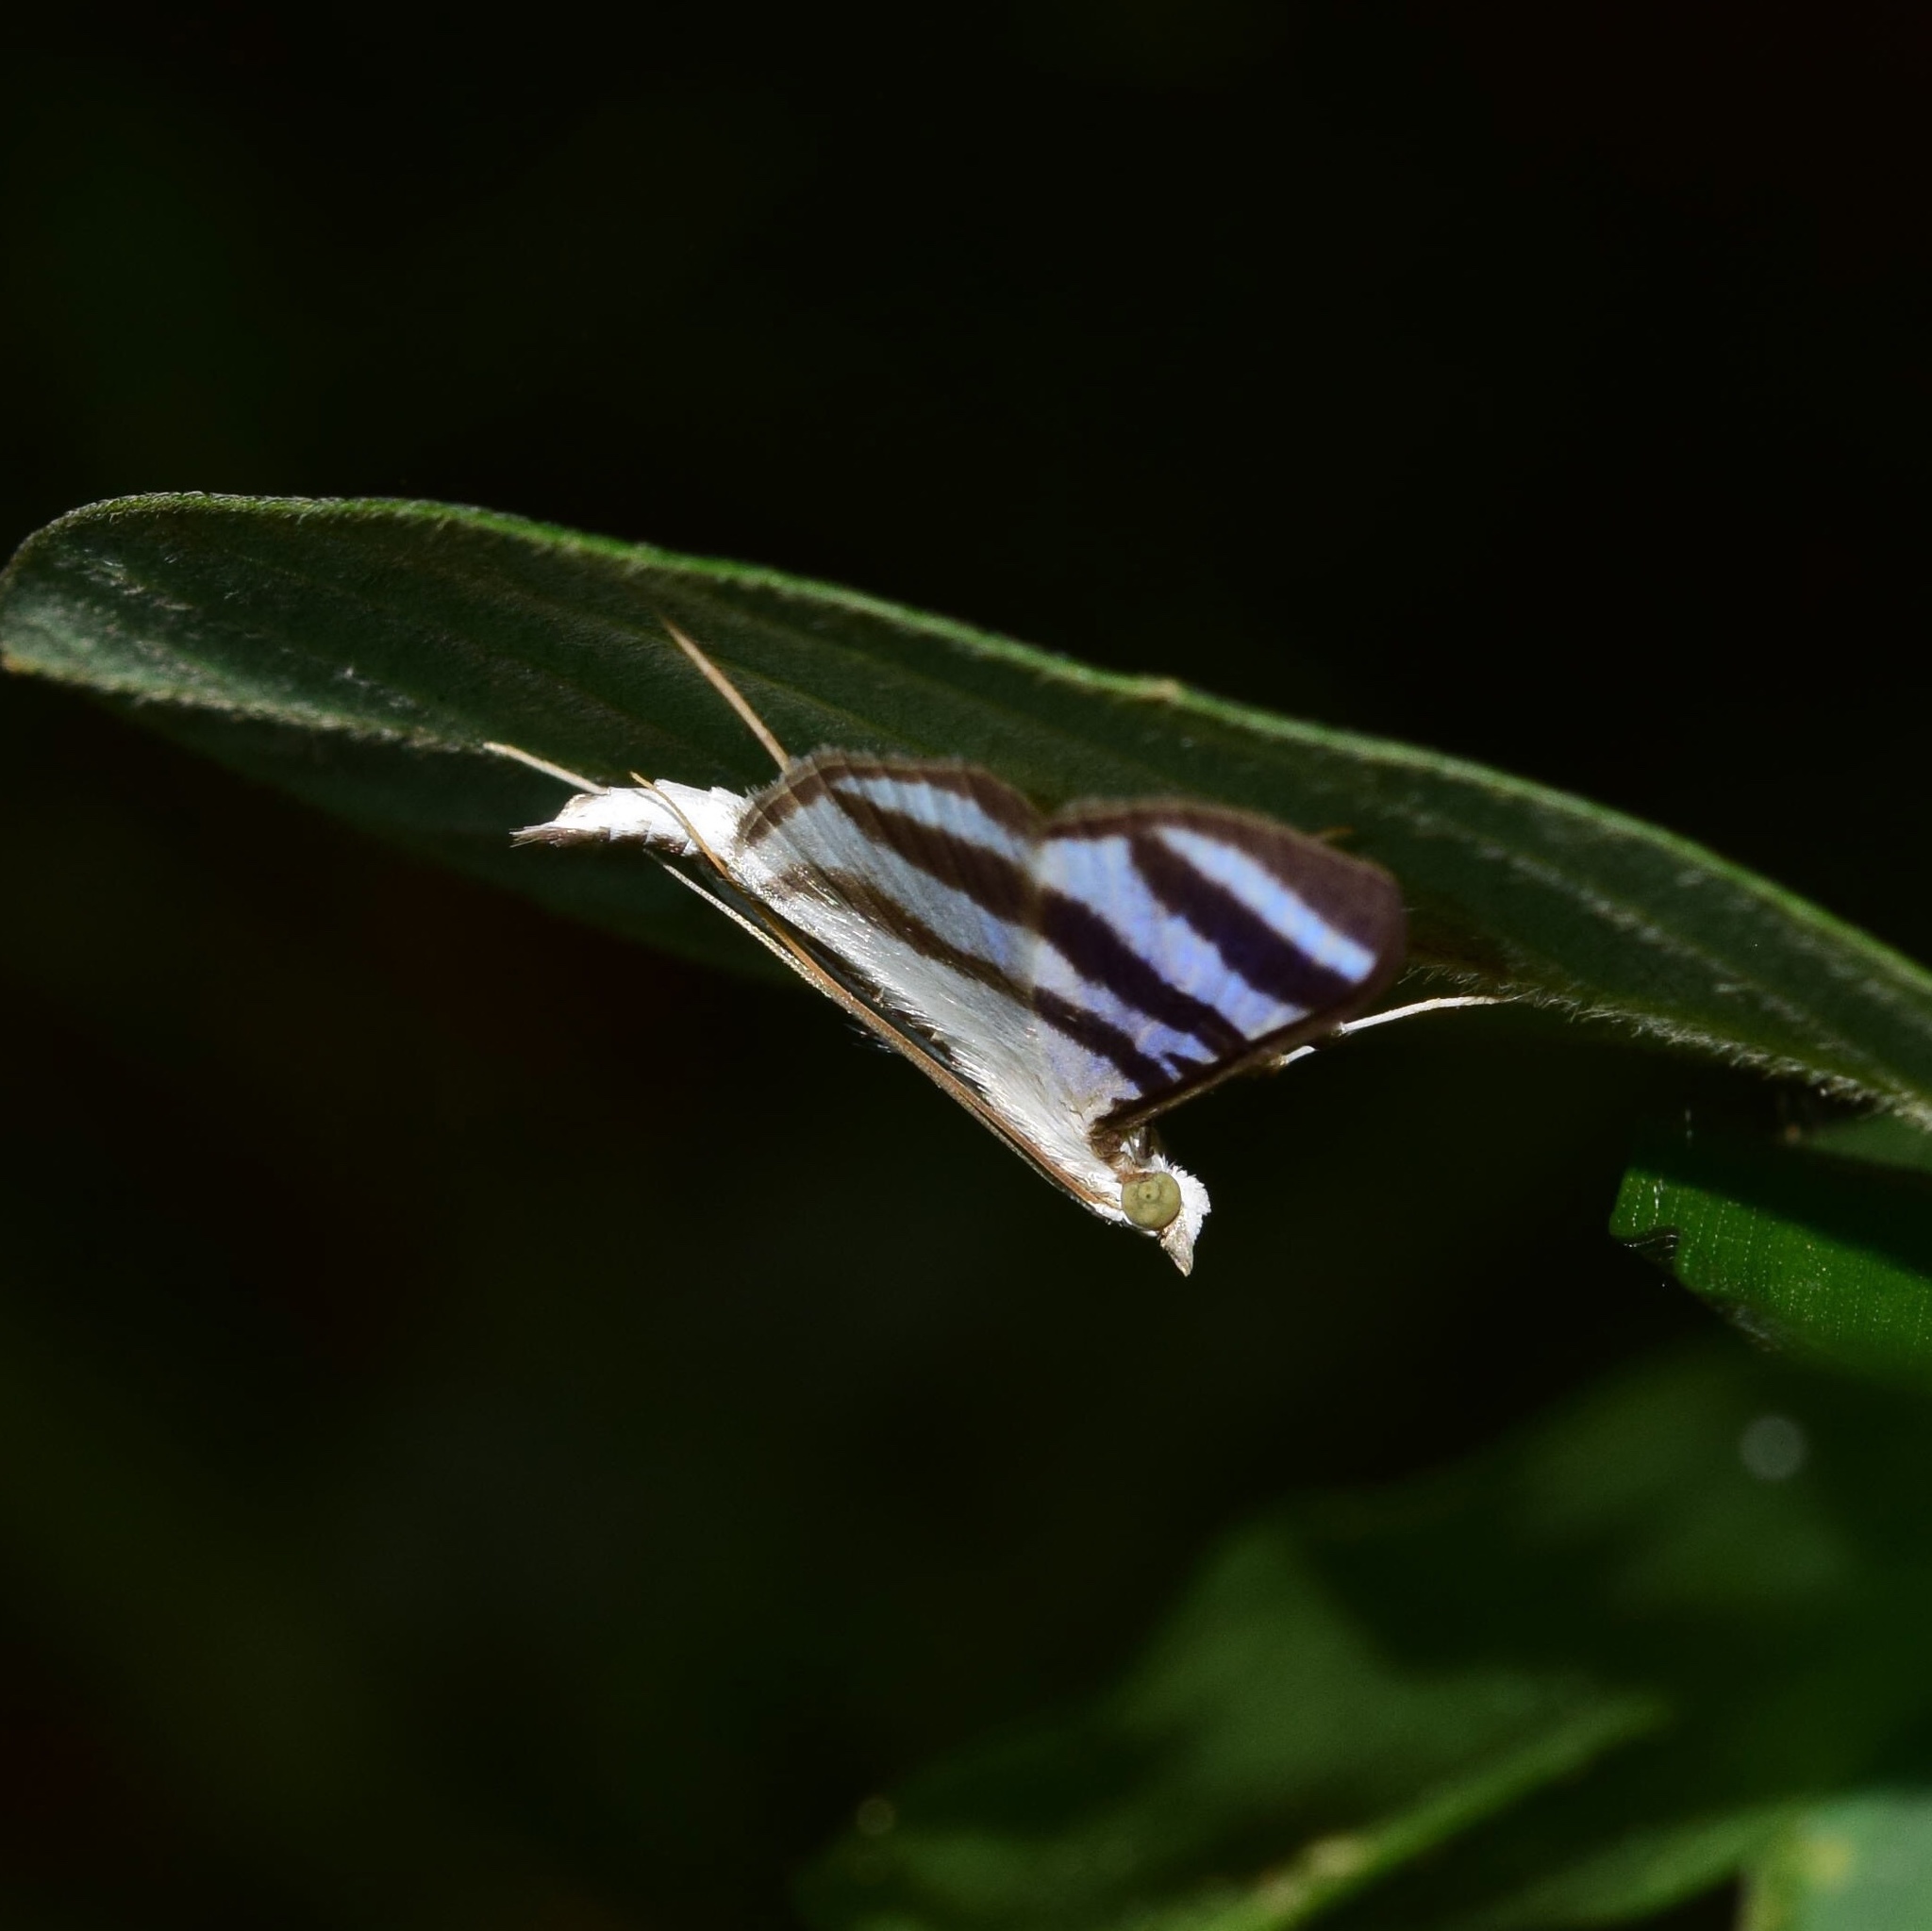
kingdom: Animalia
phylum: Arthropoda
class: Insecta
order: Lepidoptera
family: Crambidae
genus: Zebronia
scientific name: Zebronia phenice
